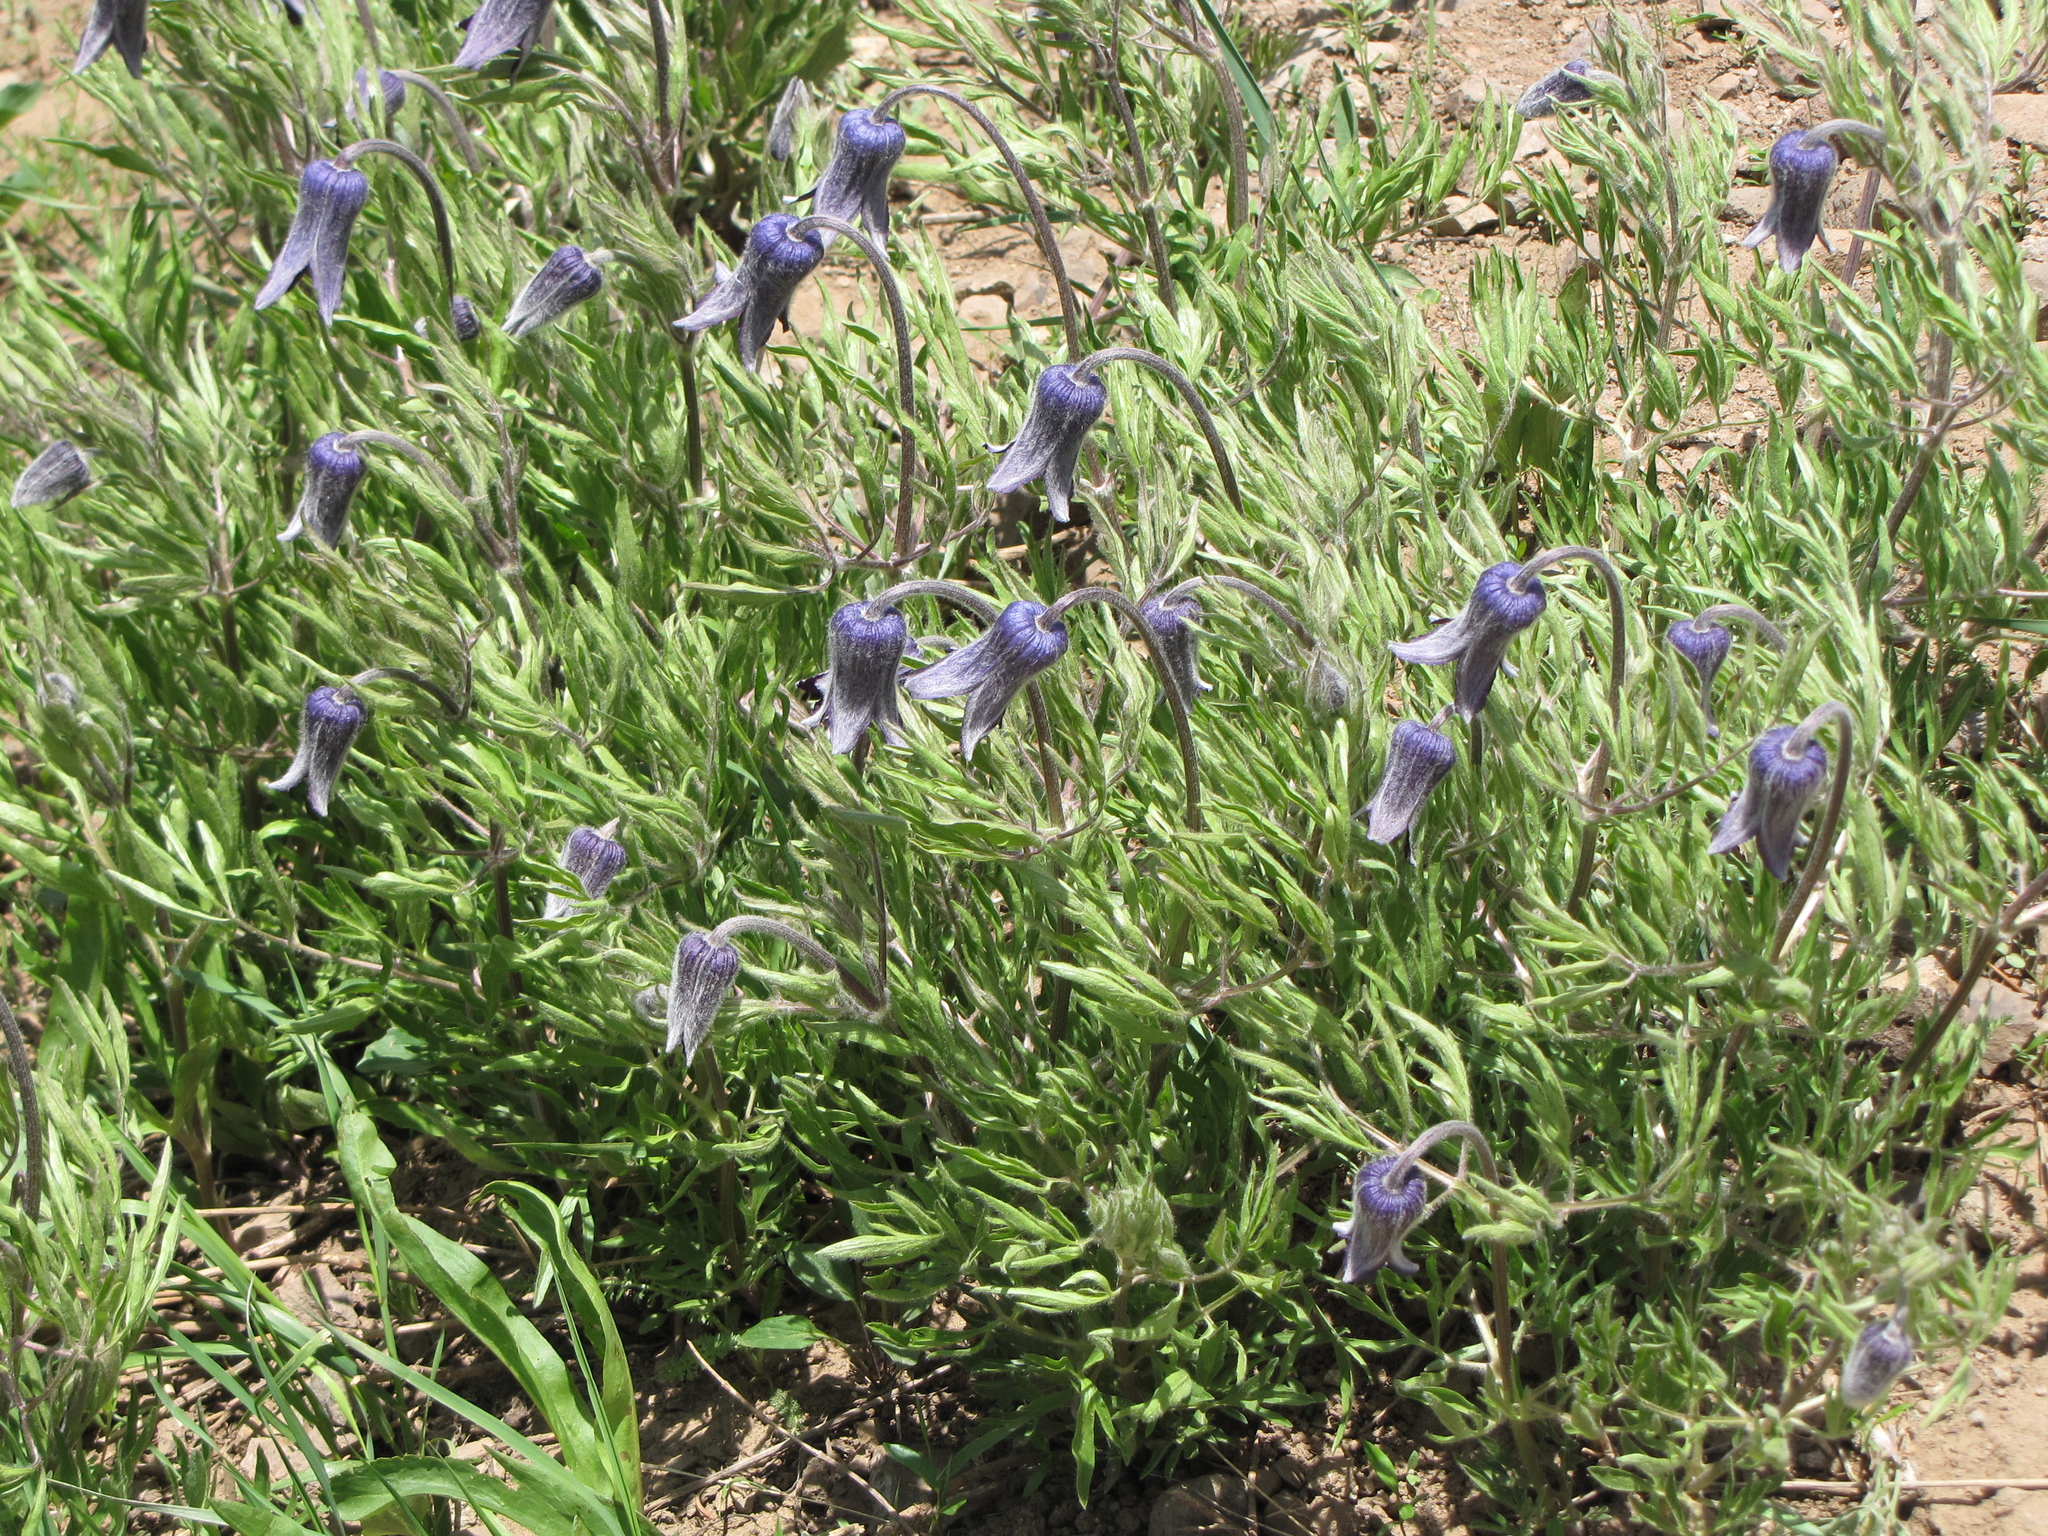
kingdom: Plantae
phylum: Tracheophyta
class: Magnoliopsida
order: Ranunculales
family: Ranunculaceae
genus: Clematis
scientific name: Clematis hirsutissima
